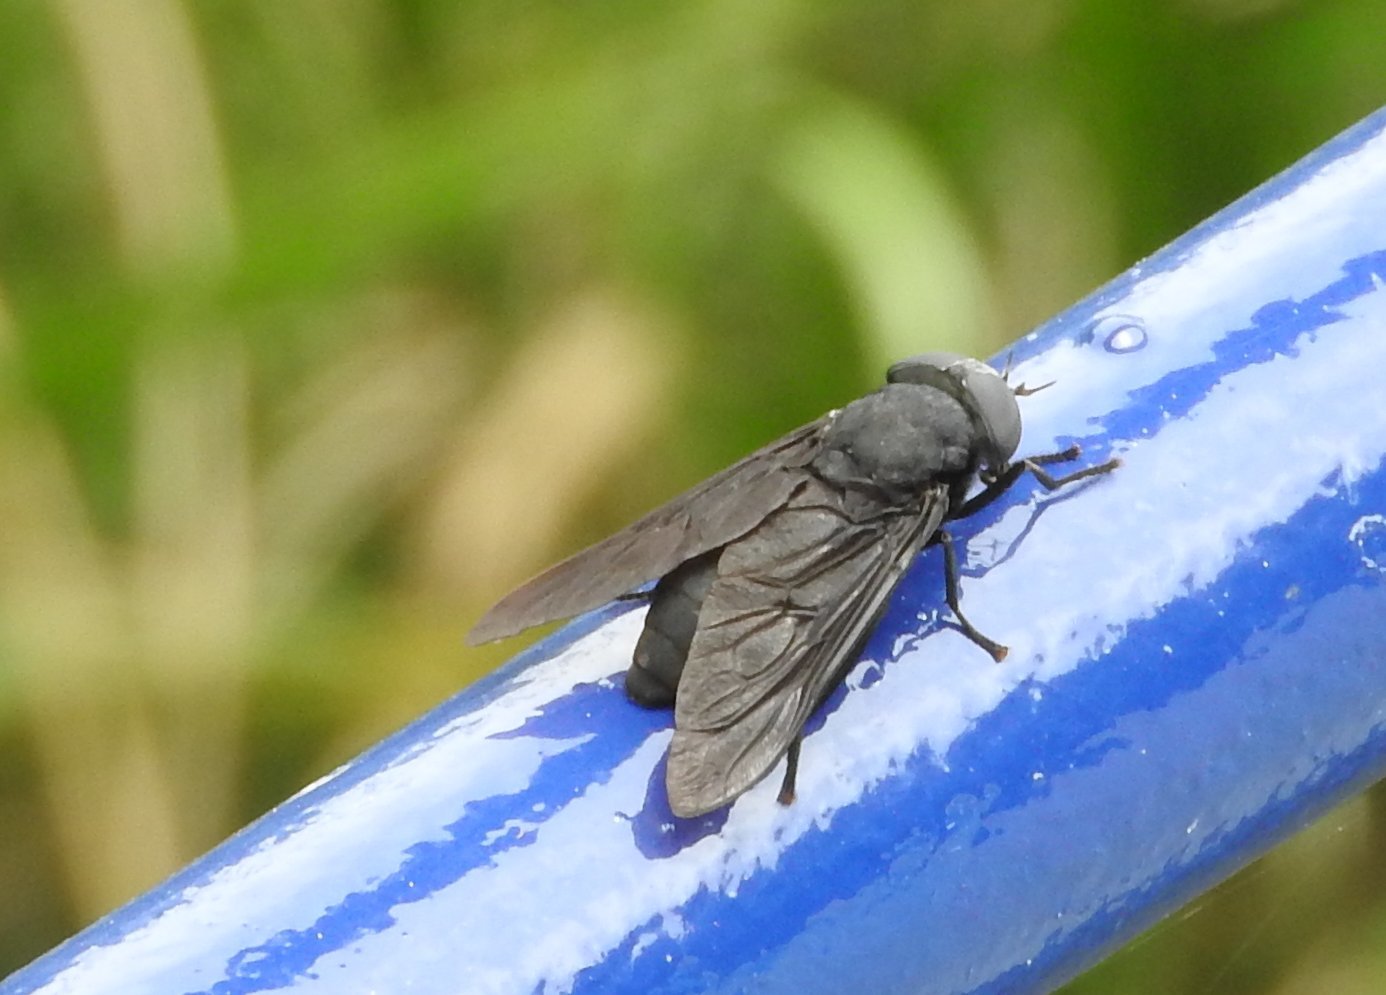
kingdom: Animalia
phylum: Arthropoda
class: Insecta
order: Diptera
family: Tabanidae
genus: Tabanus
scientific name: Tabanus atratus
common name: Black horse fly
